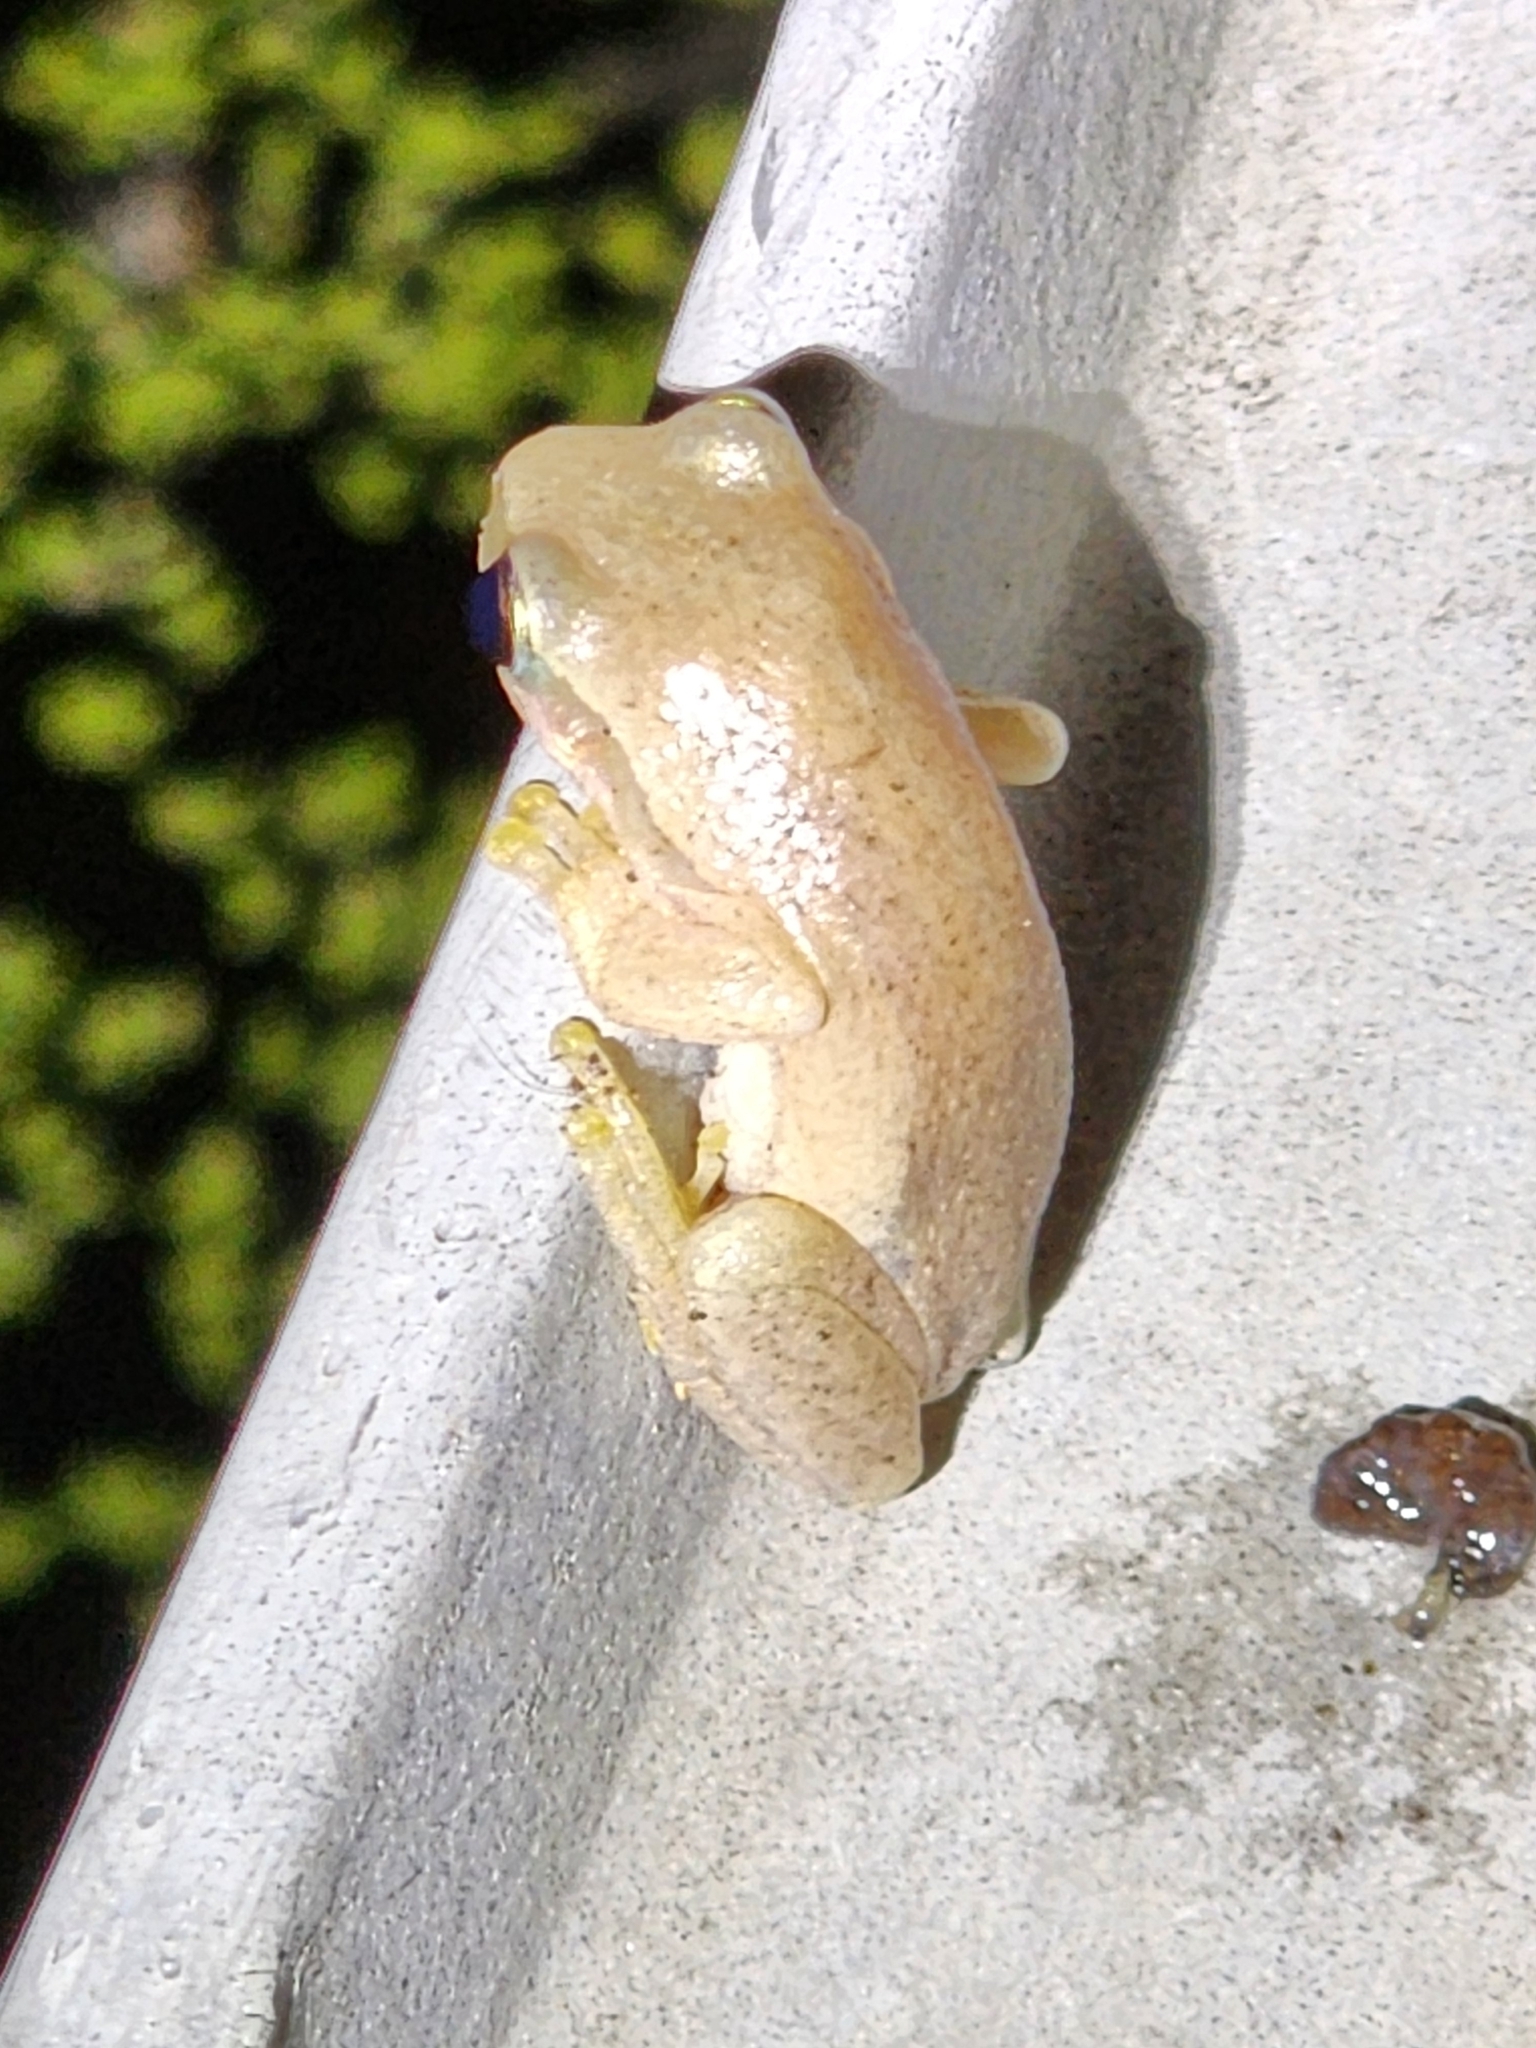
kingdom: Animalia
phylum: Chordata
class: Amphibia
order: Anura
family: Pelodryadidae
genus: Litoria
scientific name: Litoria rubella
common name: Desert tree frog
